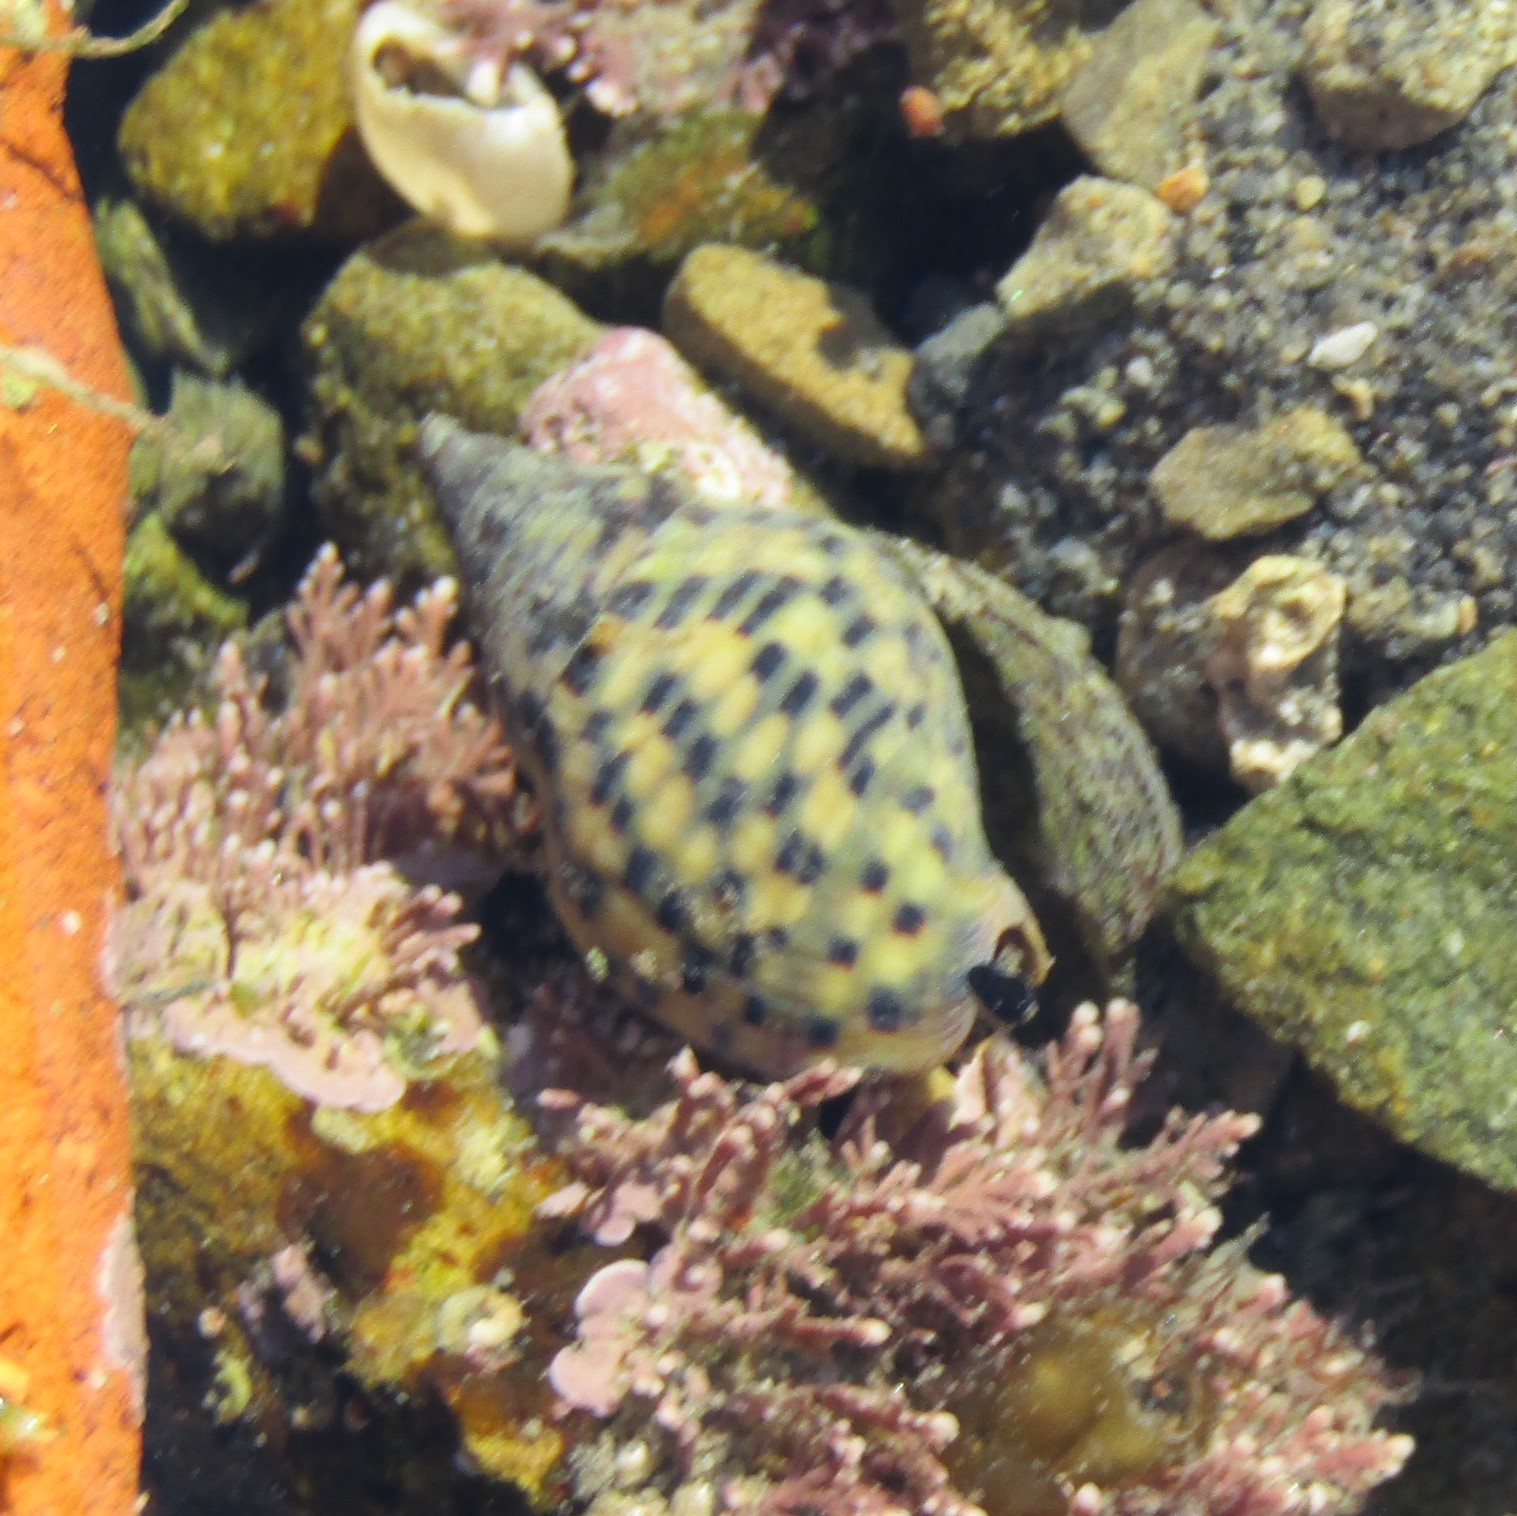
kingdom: Animalia
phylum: Mollusca
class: Gastropoda
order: Neogastropoda
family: Cominellidae
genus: Cominella
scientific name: Cominella maculosa
